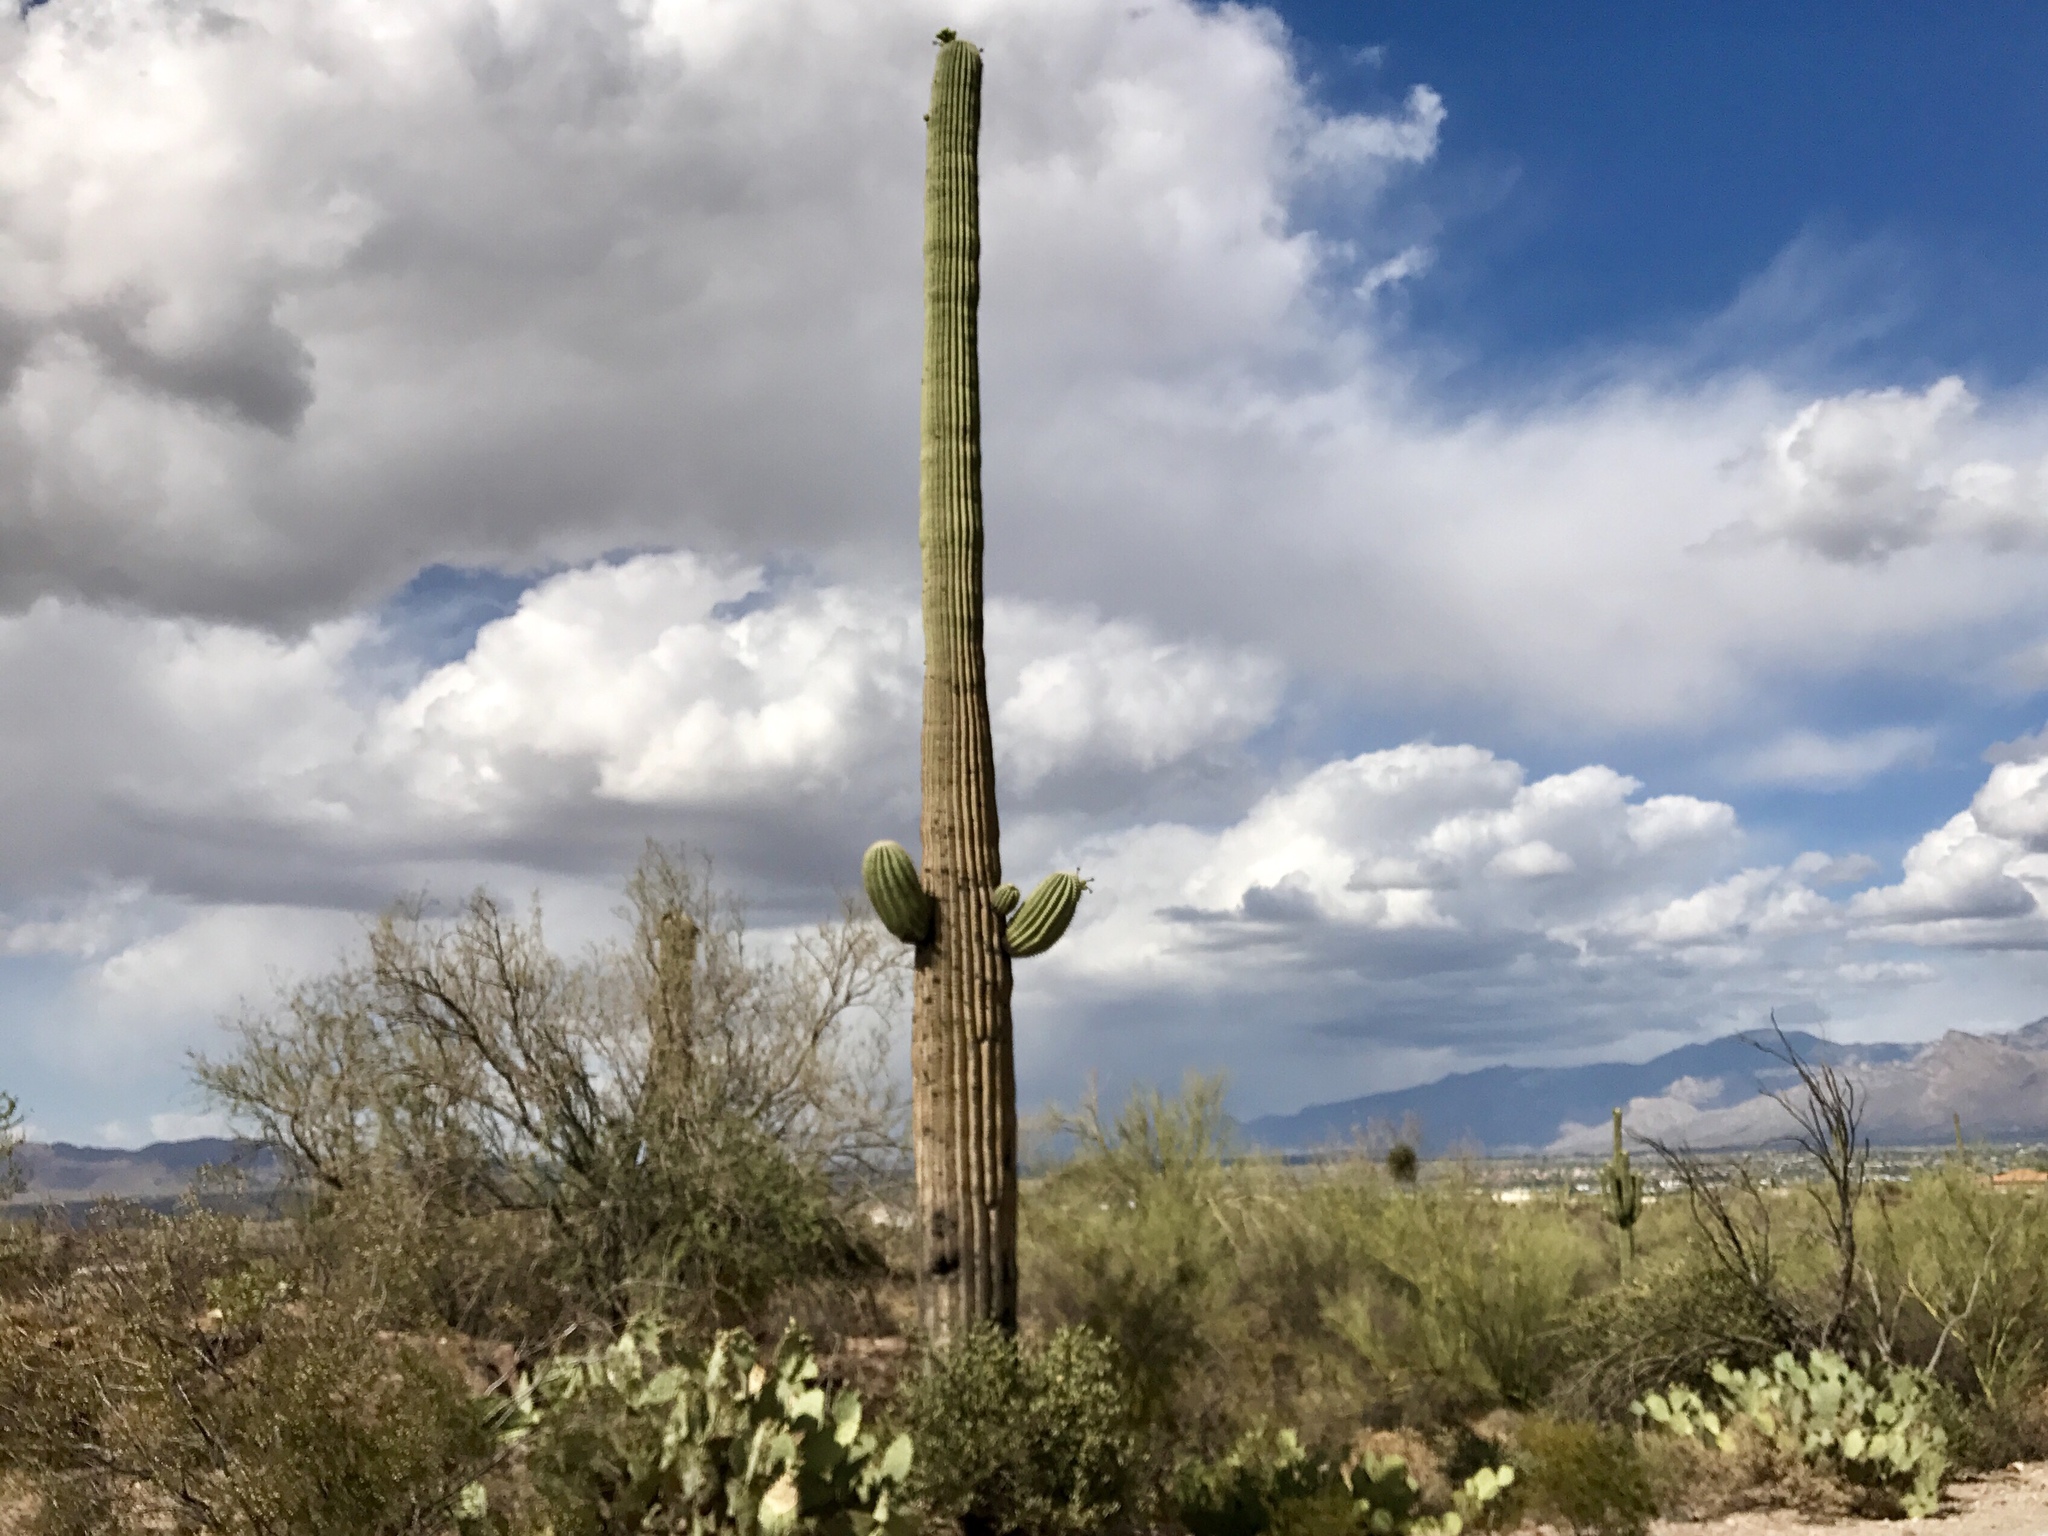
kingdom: Plantae
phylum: Tracheophyta
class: Magnoliopsida
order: Caryophyllales
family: Cactaceae
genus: Carnegiea
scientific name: Carnegiea gigantea
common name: Saguaro
